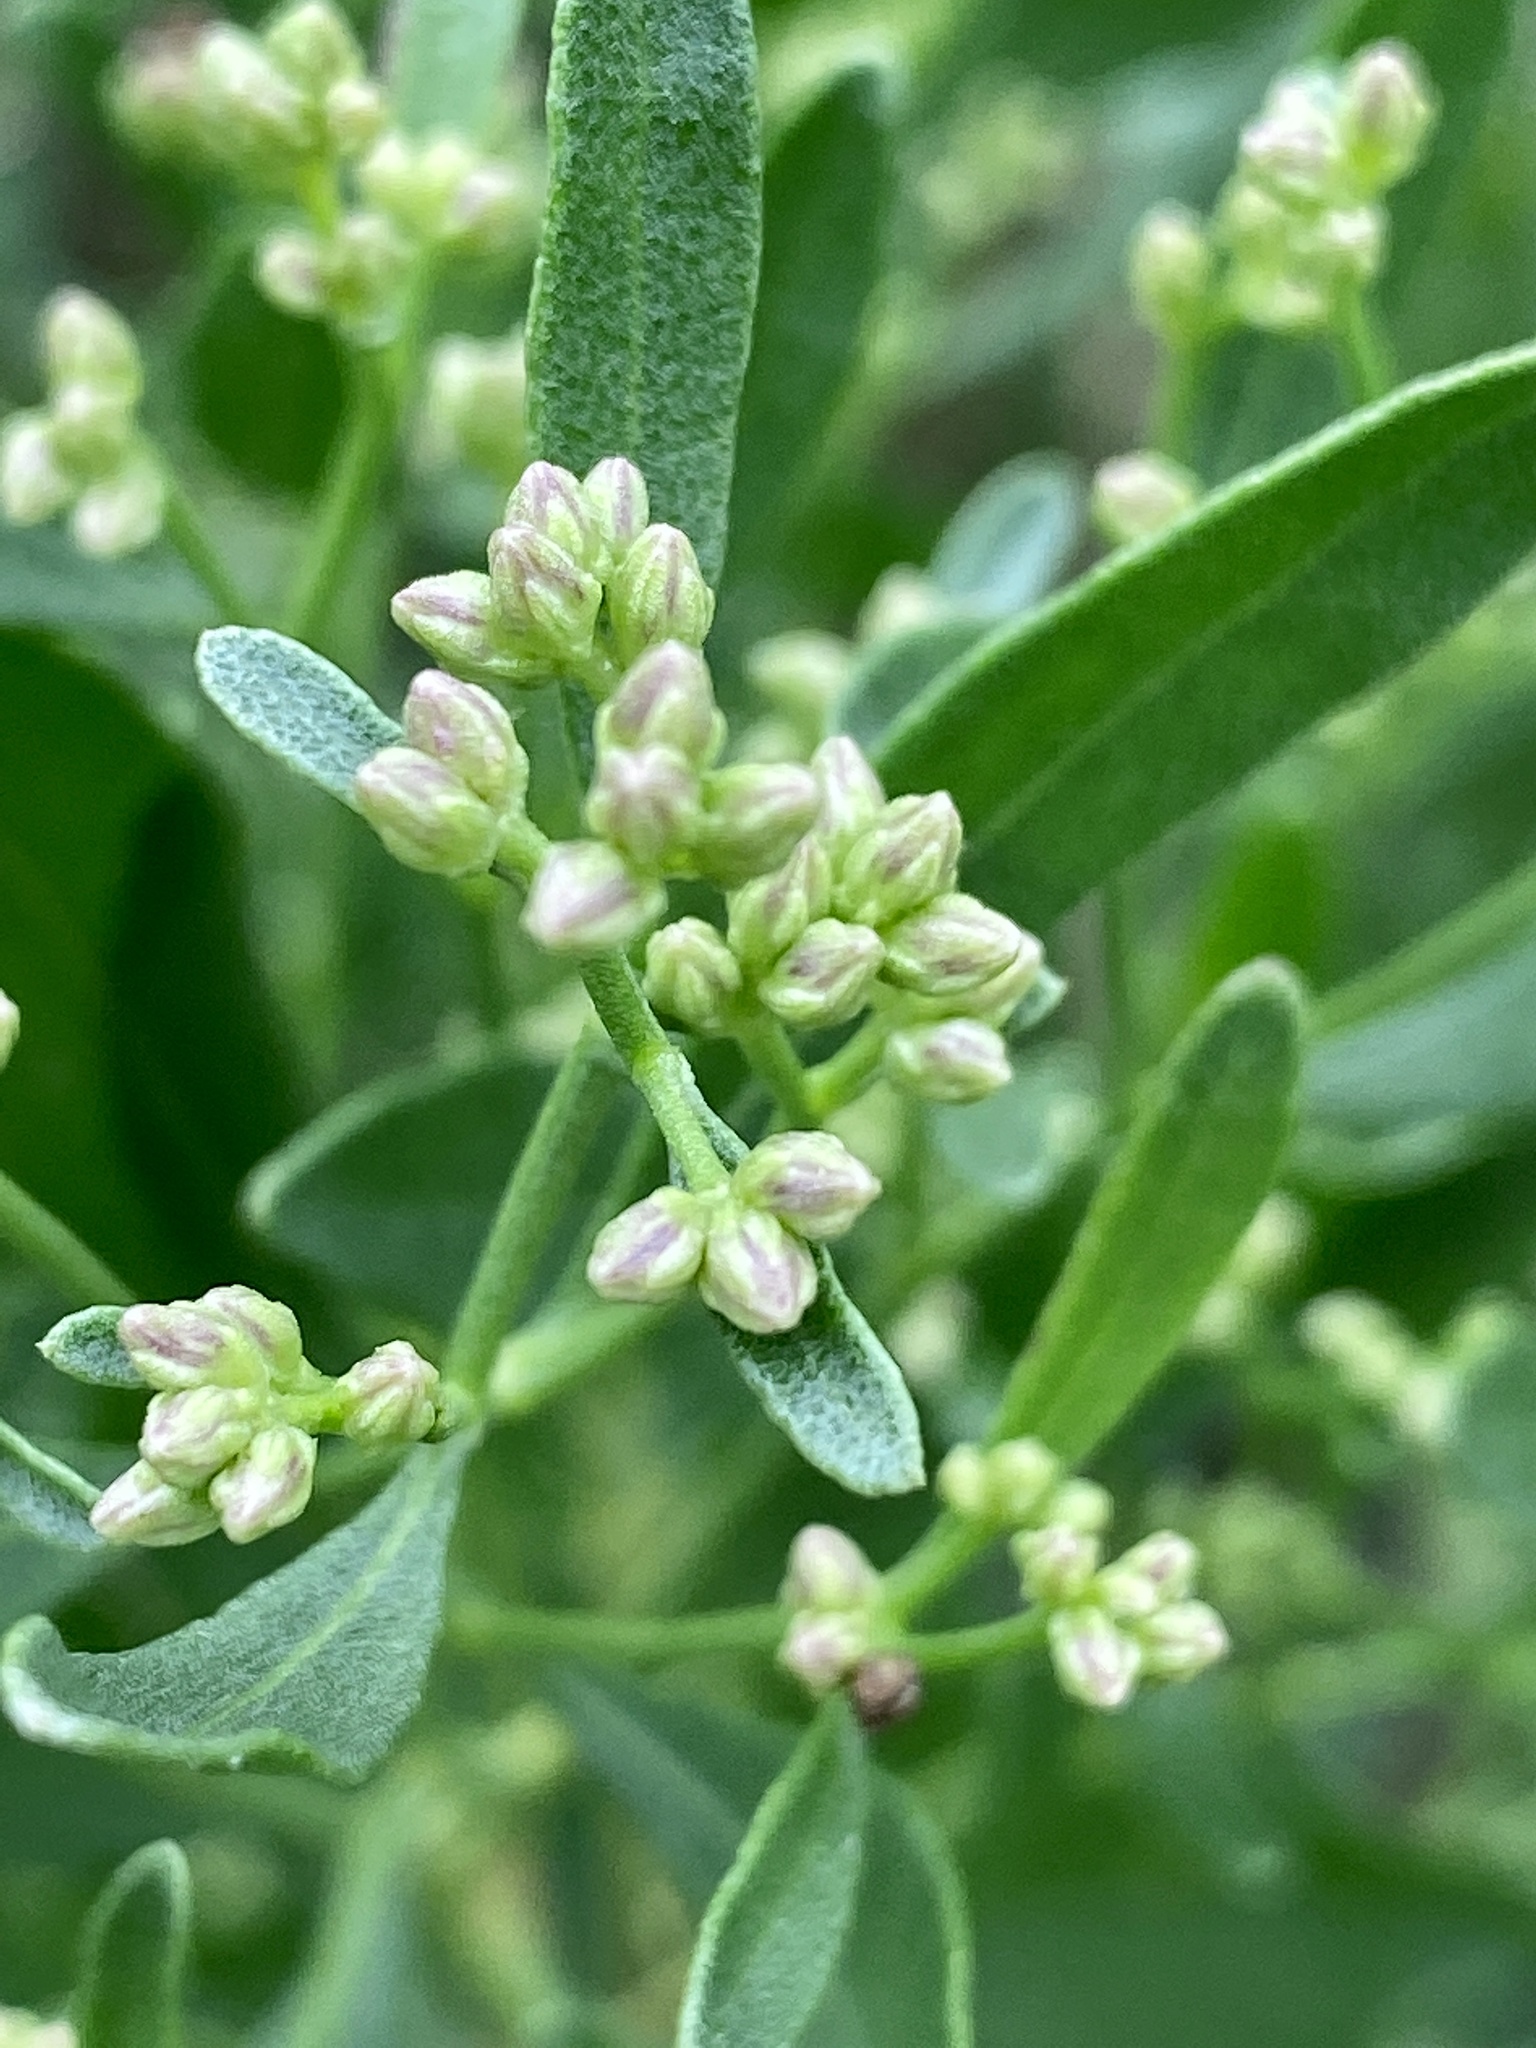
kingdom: Plantae
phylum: Tracheophyta
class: Magnoliopsida
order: Asterales
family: Asteraceae
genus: Baccharis
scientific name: Baccharis halimifolia
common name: Eastern baccharis
